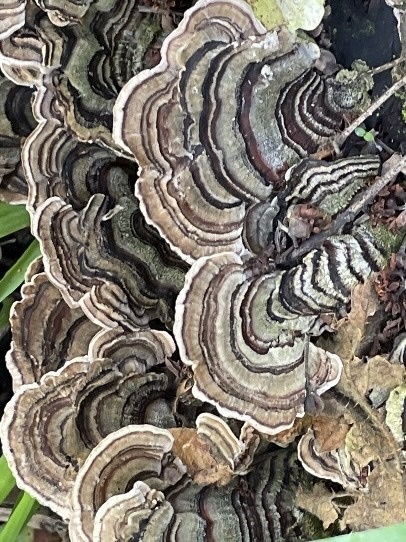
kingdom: Fungi
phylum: Basidiomycota
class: Agaricomycetes
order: Polyporales
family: Polyporaceae
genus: Trametes
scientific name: Trametes versicolor
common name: Turkeytail
